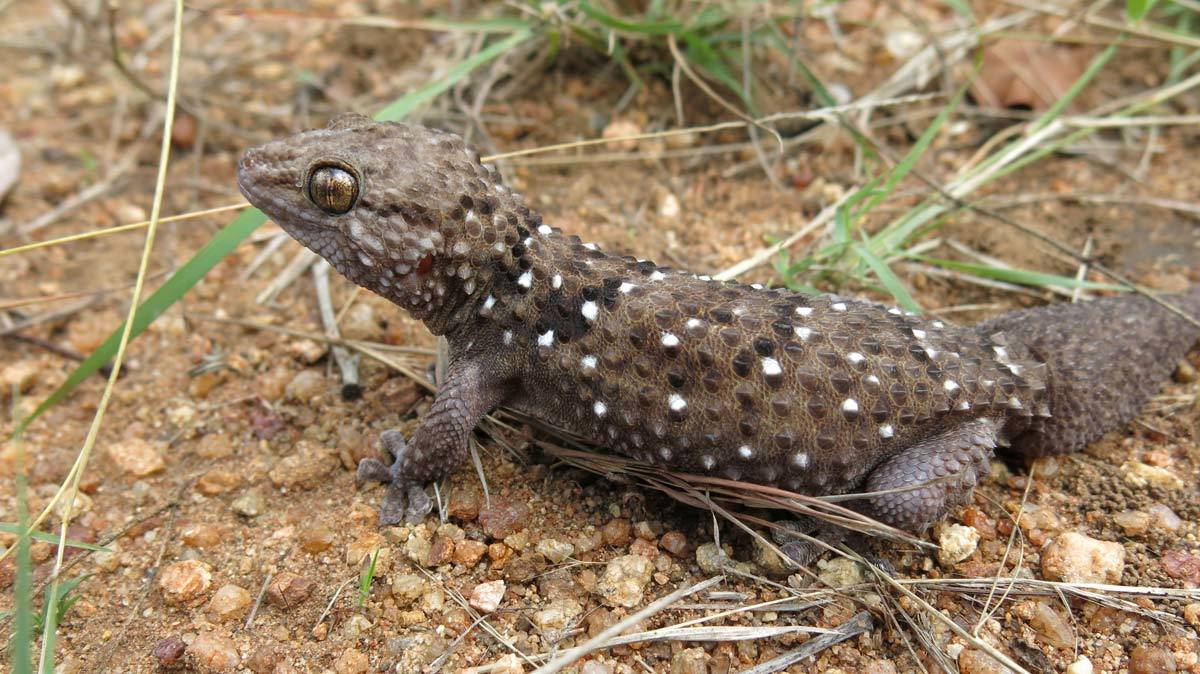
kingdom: Animalia
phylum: Chordata
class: Squamata
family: Gekkonidae
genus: Chondrodactylus
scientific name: Chondrodactylus turneri
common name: Turner’s gecko
